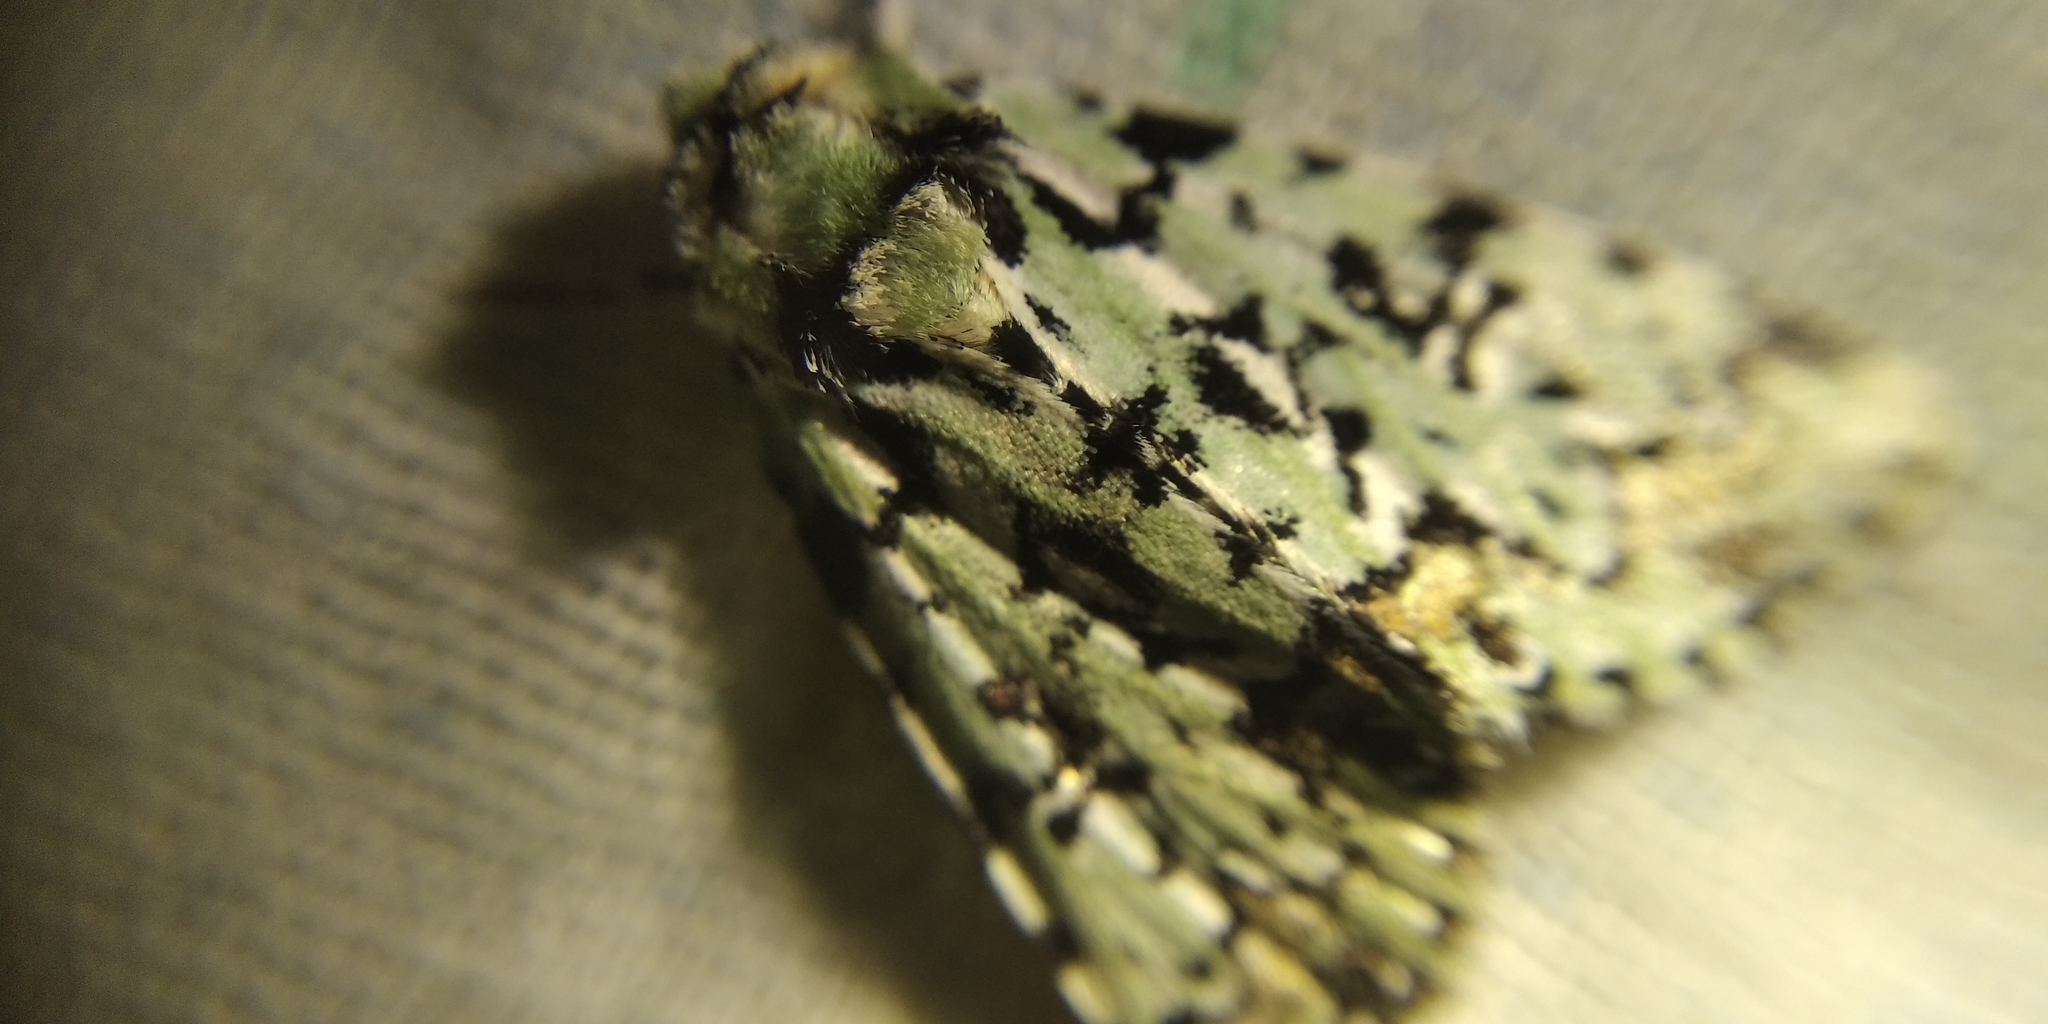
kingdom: Animalia
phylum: Arthropoda
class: Insecta
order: Lepidoptera
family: Noctuidae
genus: Moma
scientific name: Moma alpium
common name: Scarce merveille du jour
